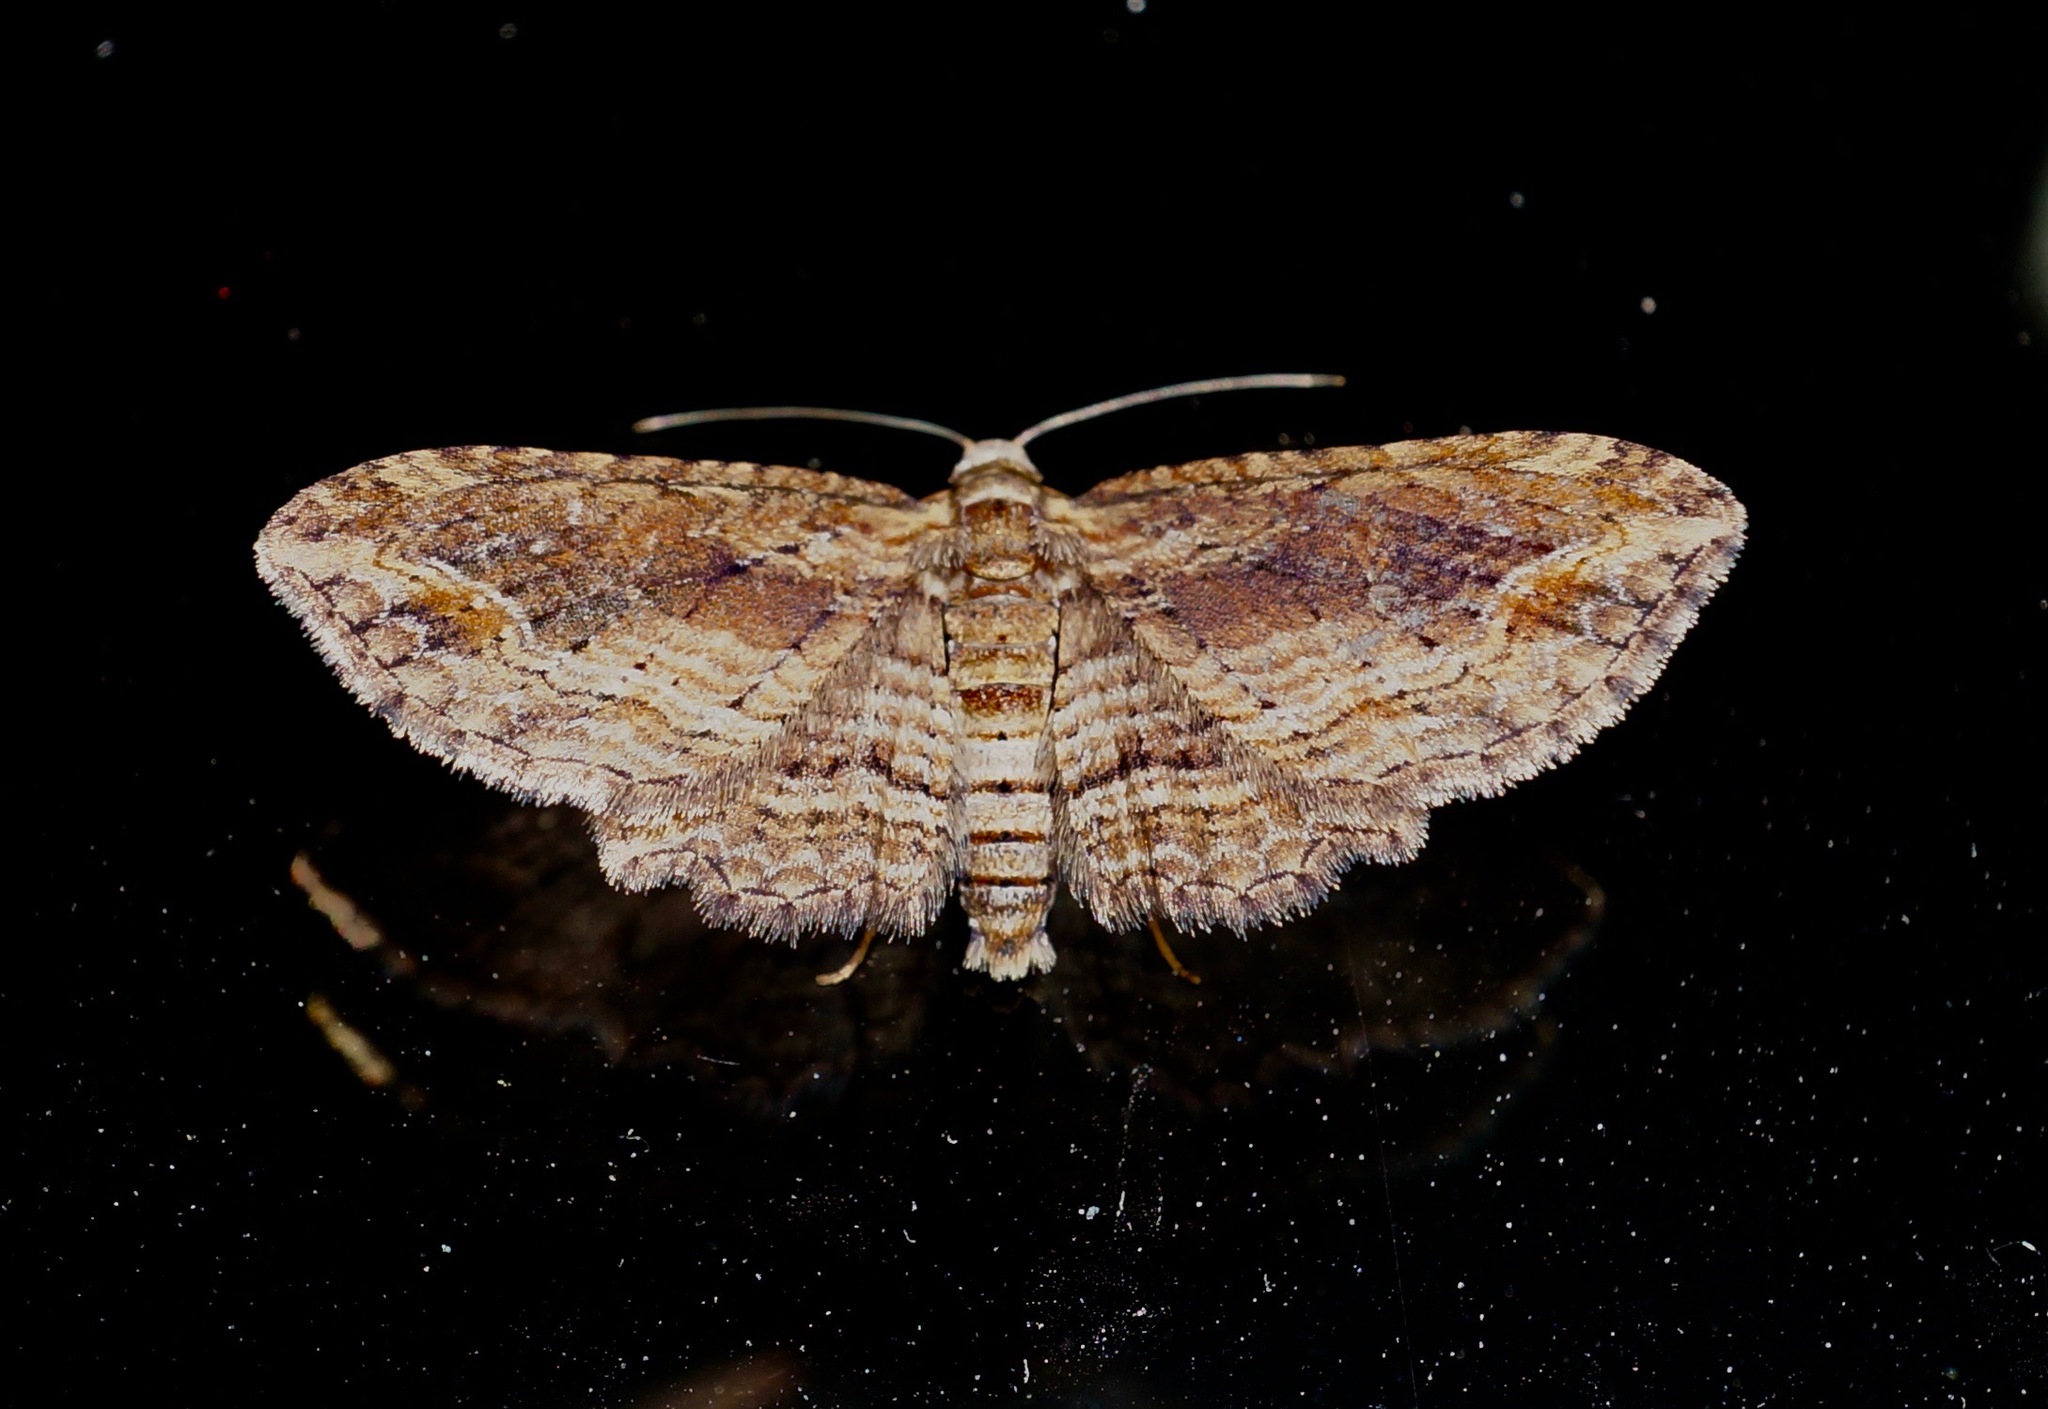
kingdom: Animalia
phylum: Arthropoda
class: Insecta
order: Lepidoptera
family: Geometridae
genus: Chloroclystis
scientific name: Chloroclystis filata
